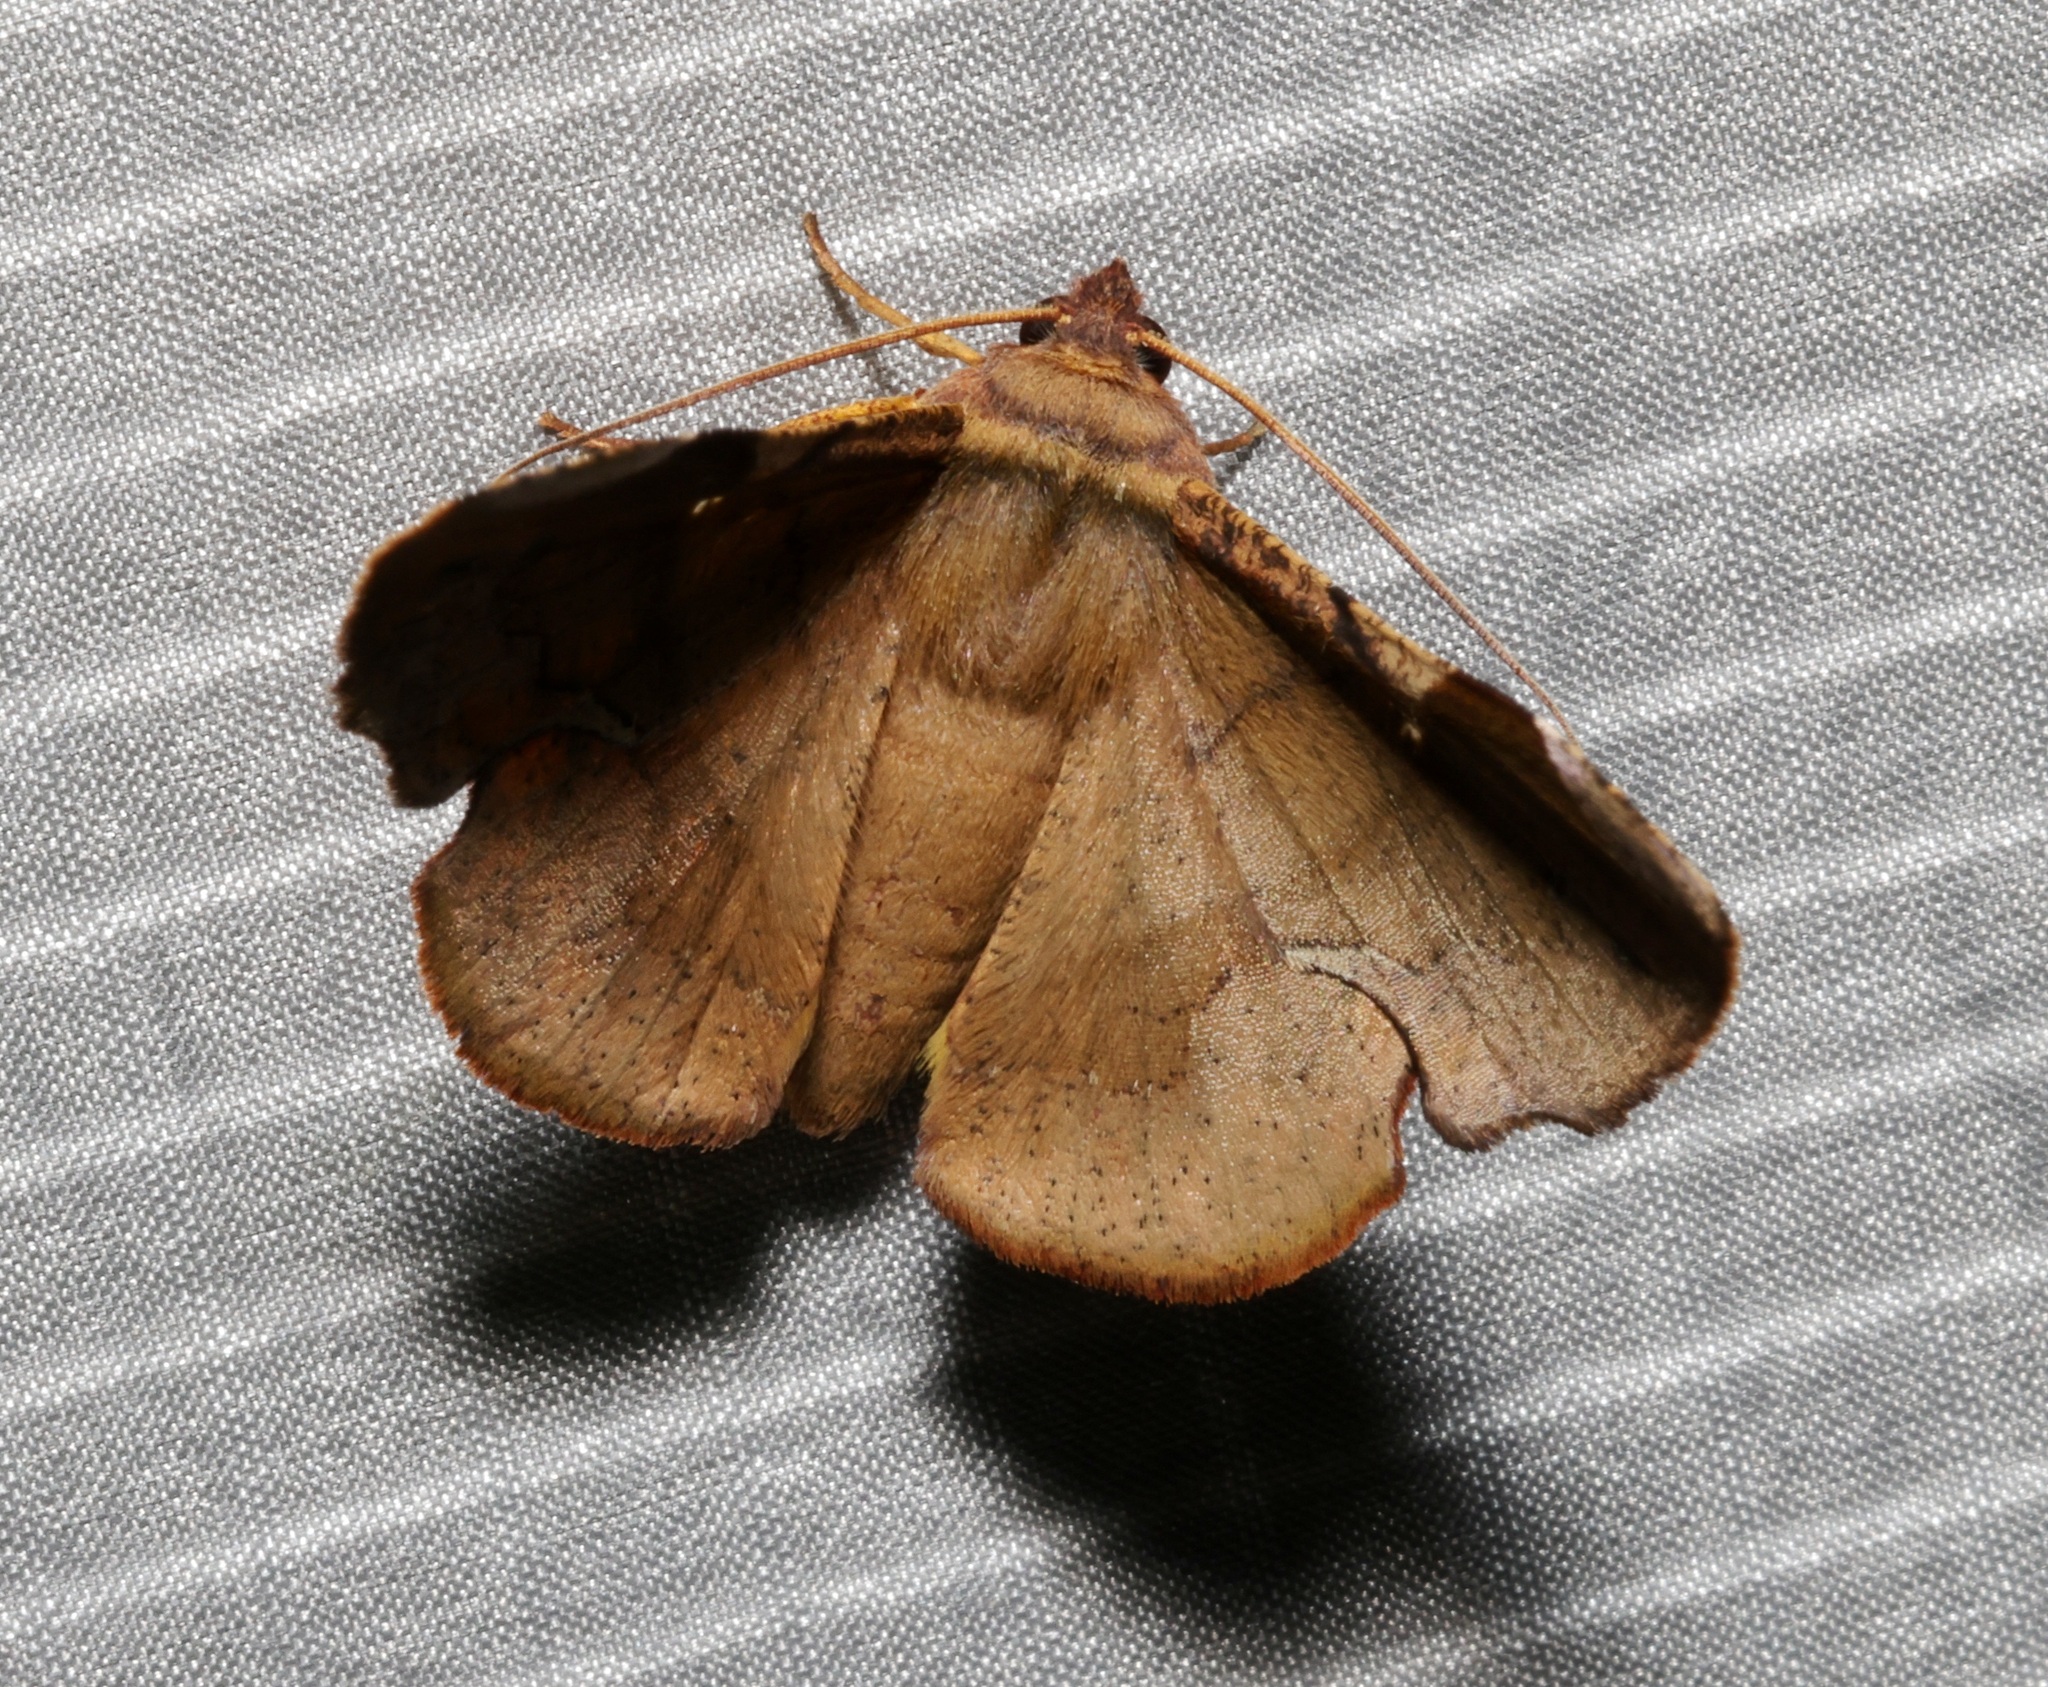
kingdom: Animalia
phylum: Arthropoda
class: Insecta
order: Lepidoptera
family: Geometridae
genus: Fascellina
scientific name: Fascellina chromataria
